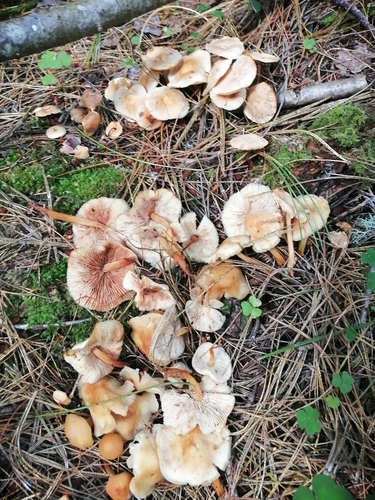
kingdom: Fungi
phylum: Basidiomycota
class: Agaricomycetes
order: Agaricales
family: Omphalotaceae
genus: Gymnopus
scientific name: Gymnopus dryophilus
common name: Penny top
